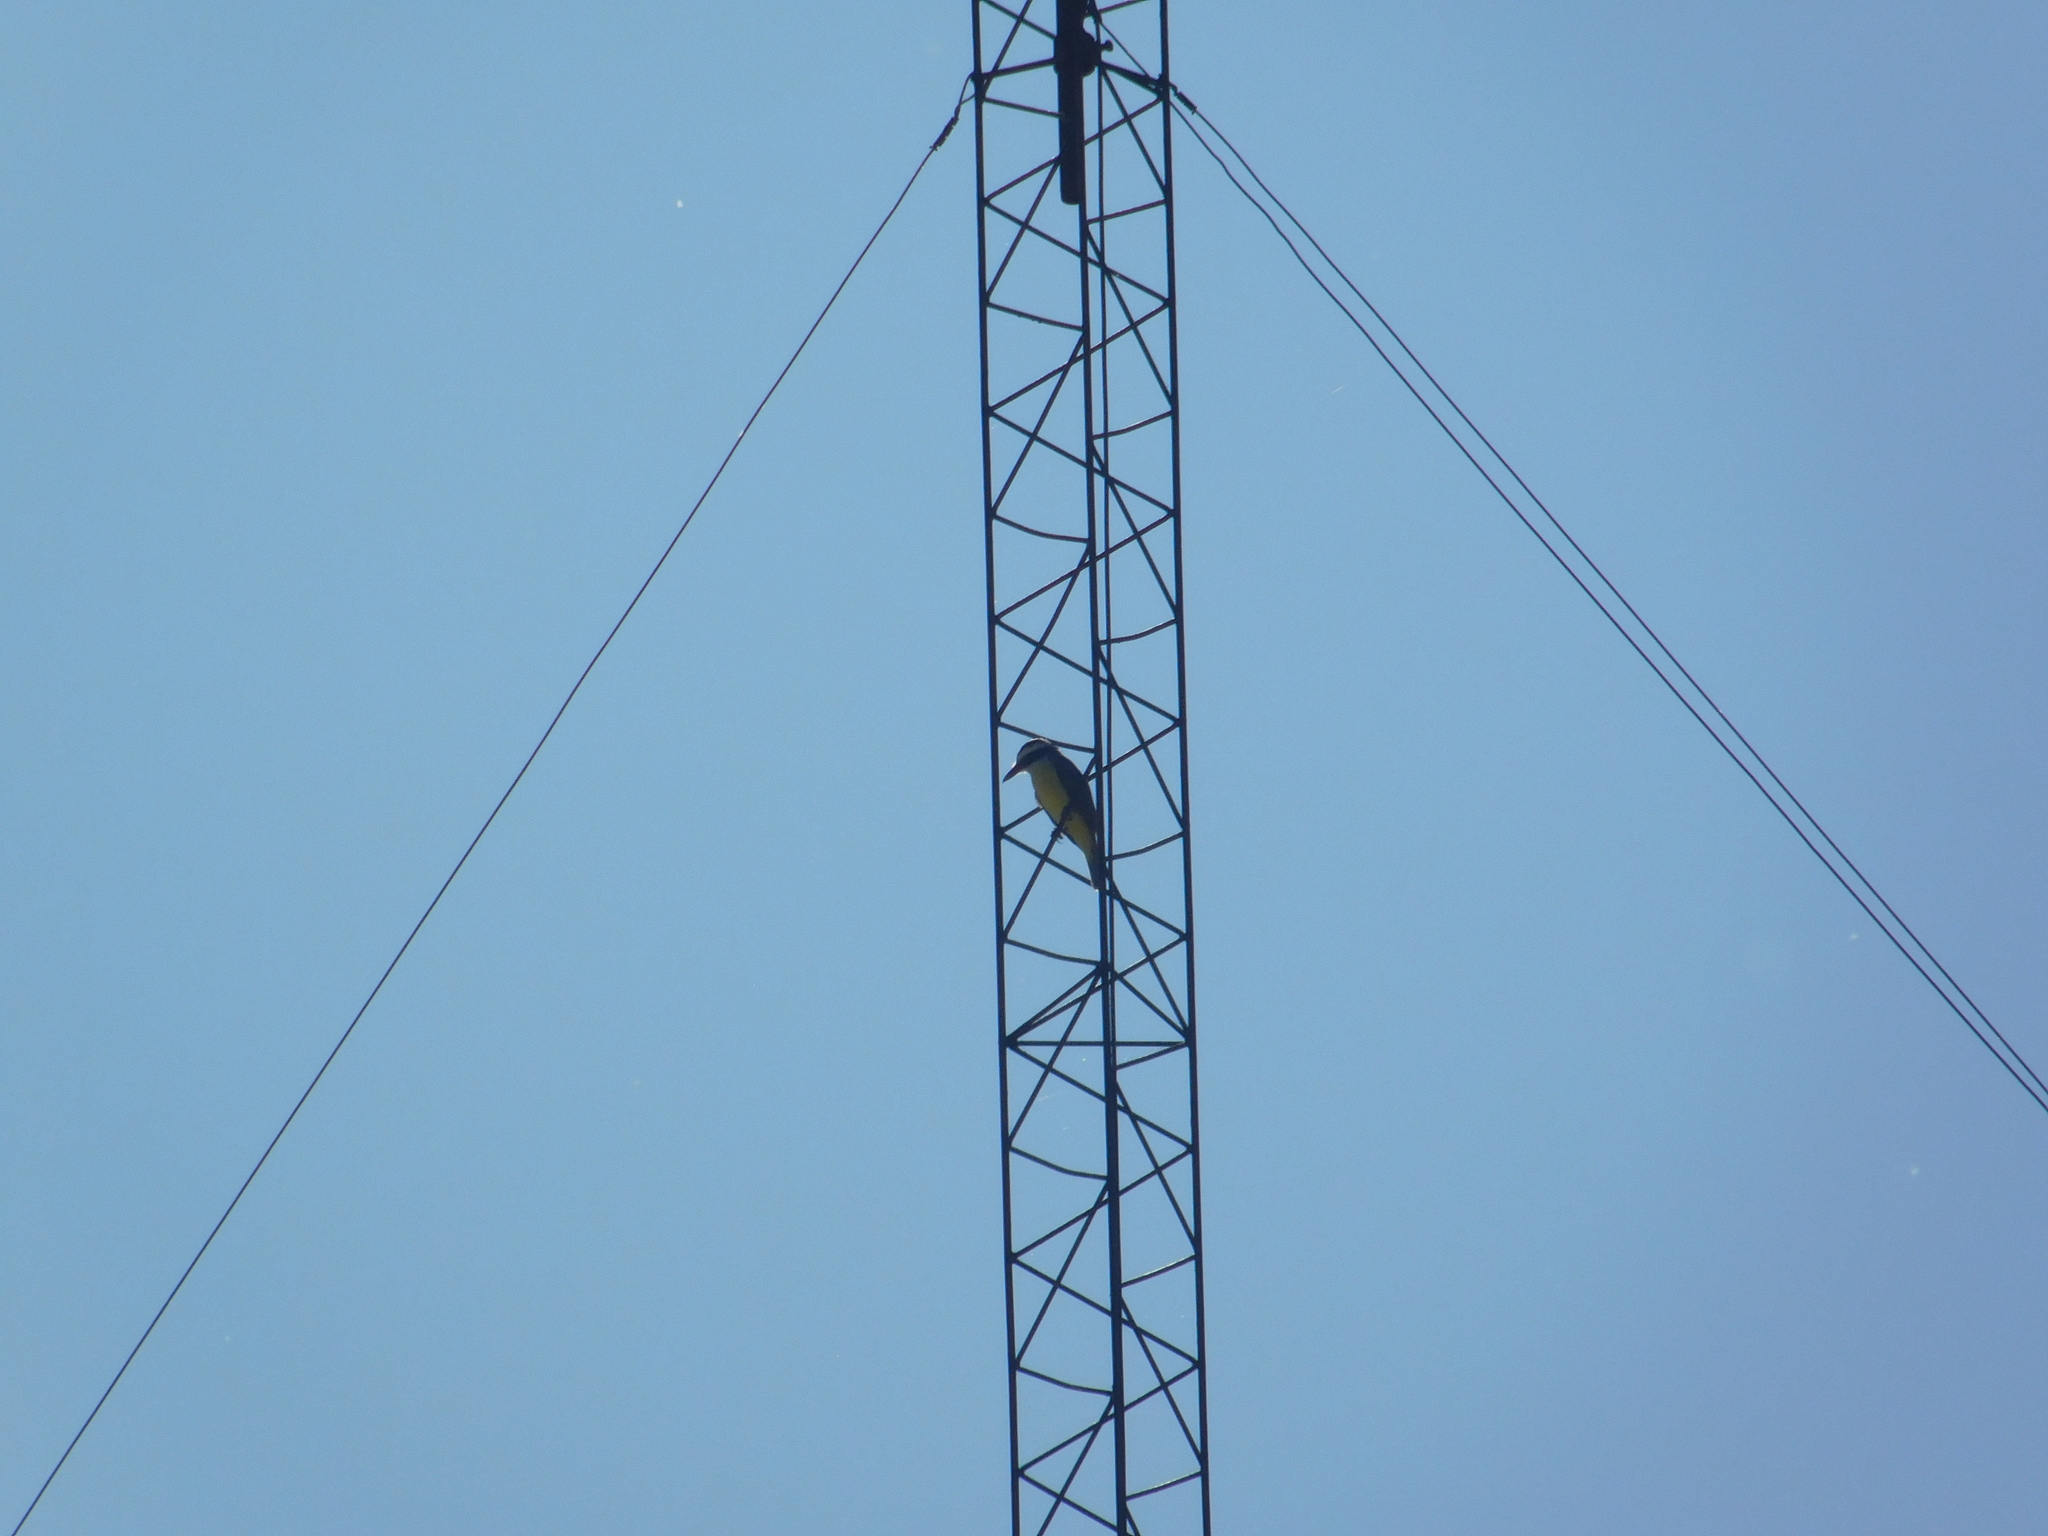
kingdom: Animalia
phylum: Chordata
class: Aves
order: Passeriformes
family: Tyrannidae
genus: Pitangus
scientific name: Pitangus sulphuratus
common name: Great kiskadee
